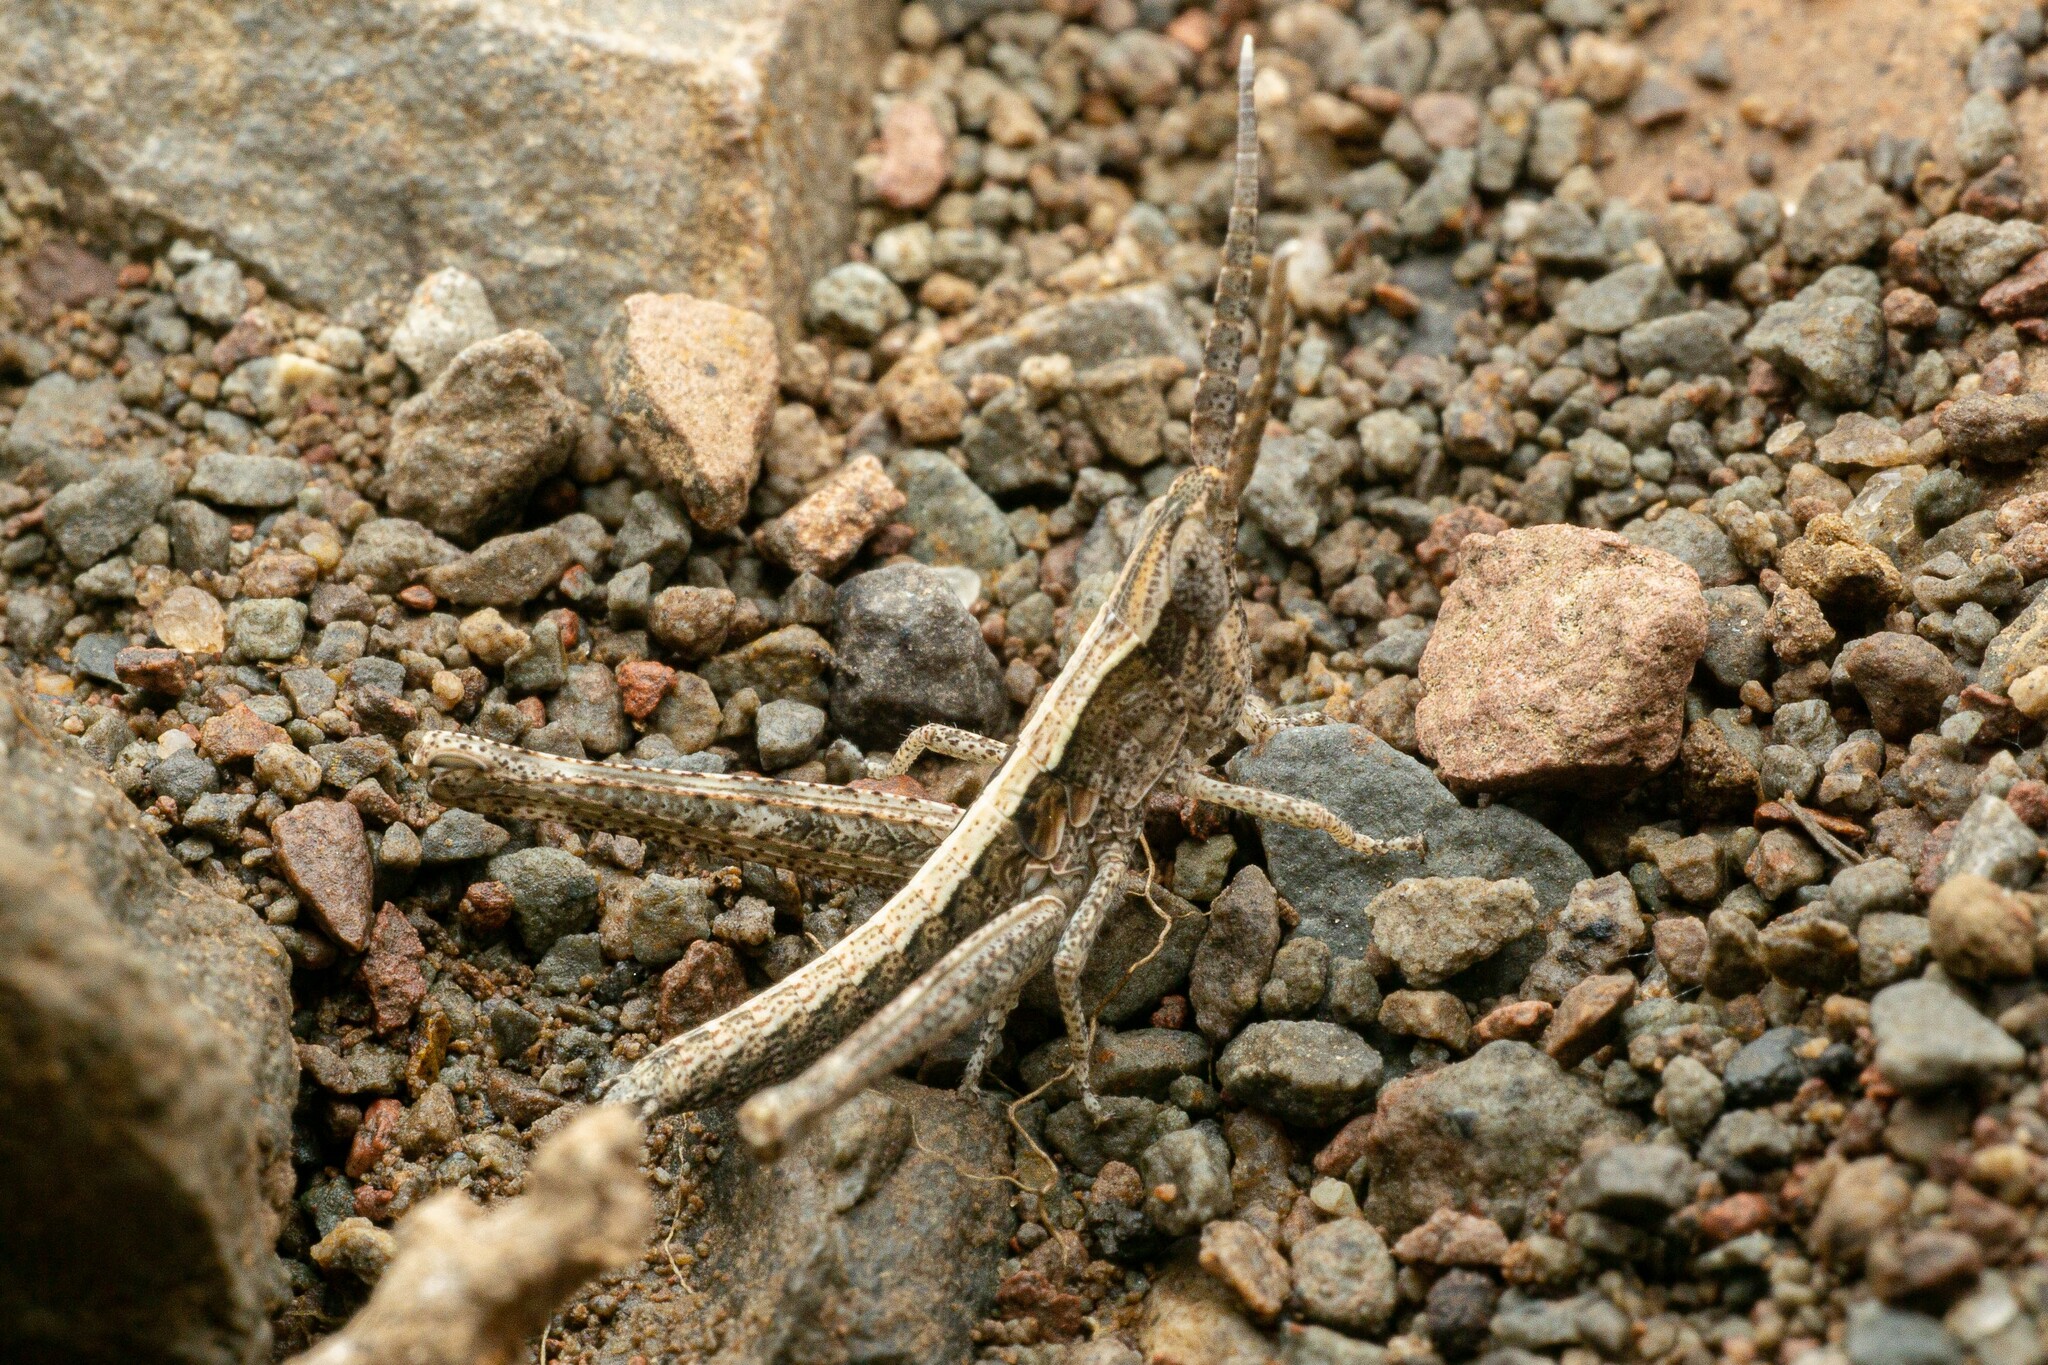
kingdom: Animalia
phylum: Arthropoda
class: Insecta
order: Orthoptera
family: Acrididae
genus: Acantherus
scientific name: Acantherus piperatus
